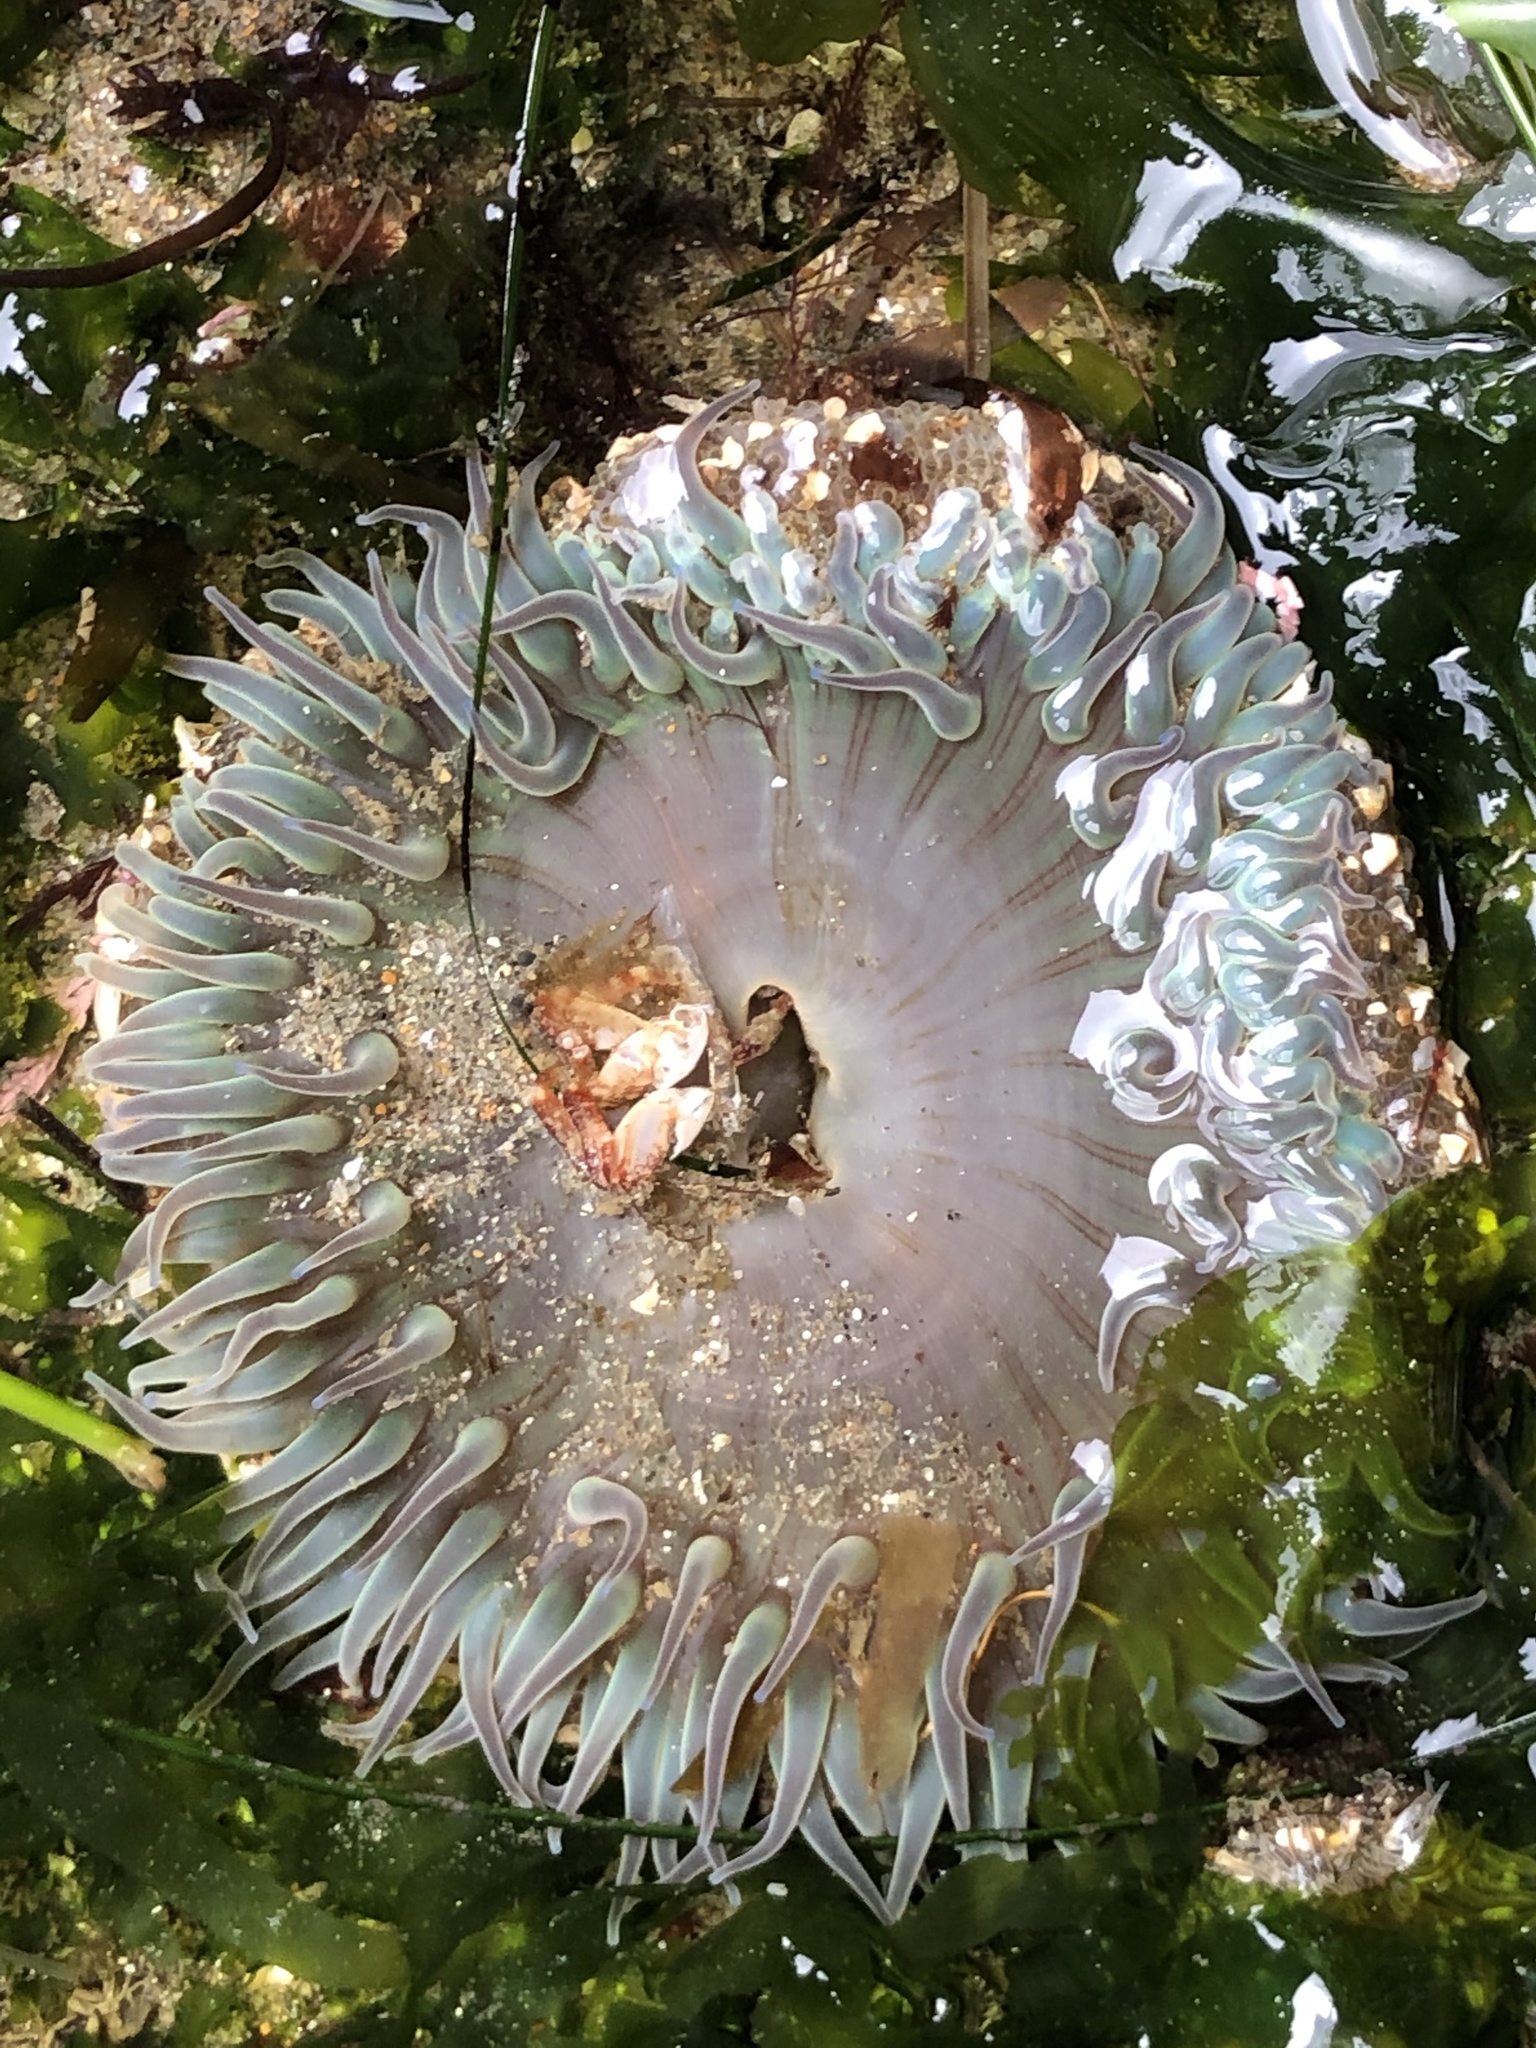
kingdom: Animalia
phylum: Cnidaria
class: Anthozoa
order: Actiniaria
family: Actiniidae
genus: Anthopleura
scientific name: Anthopleura sola
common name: Sun anemone
